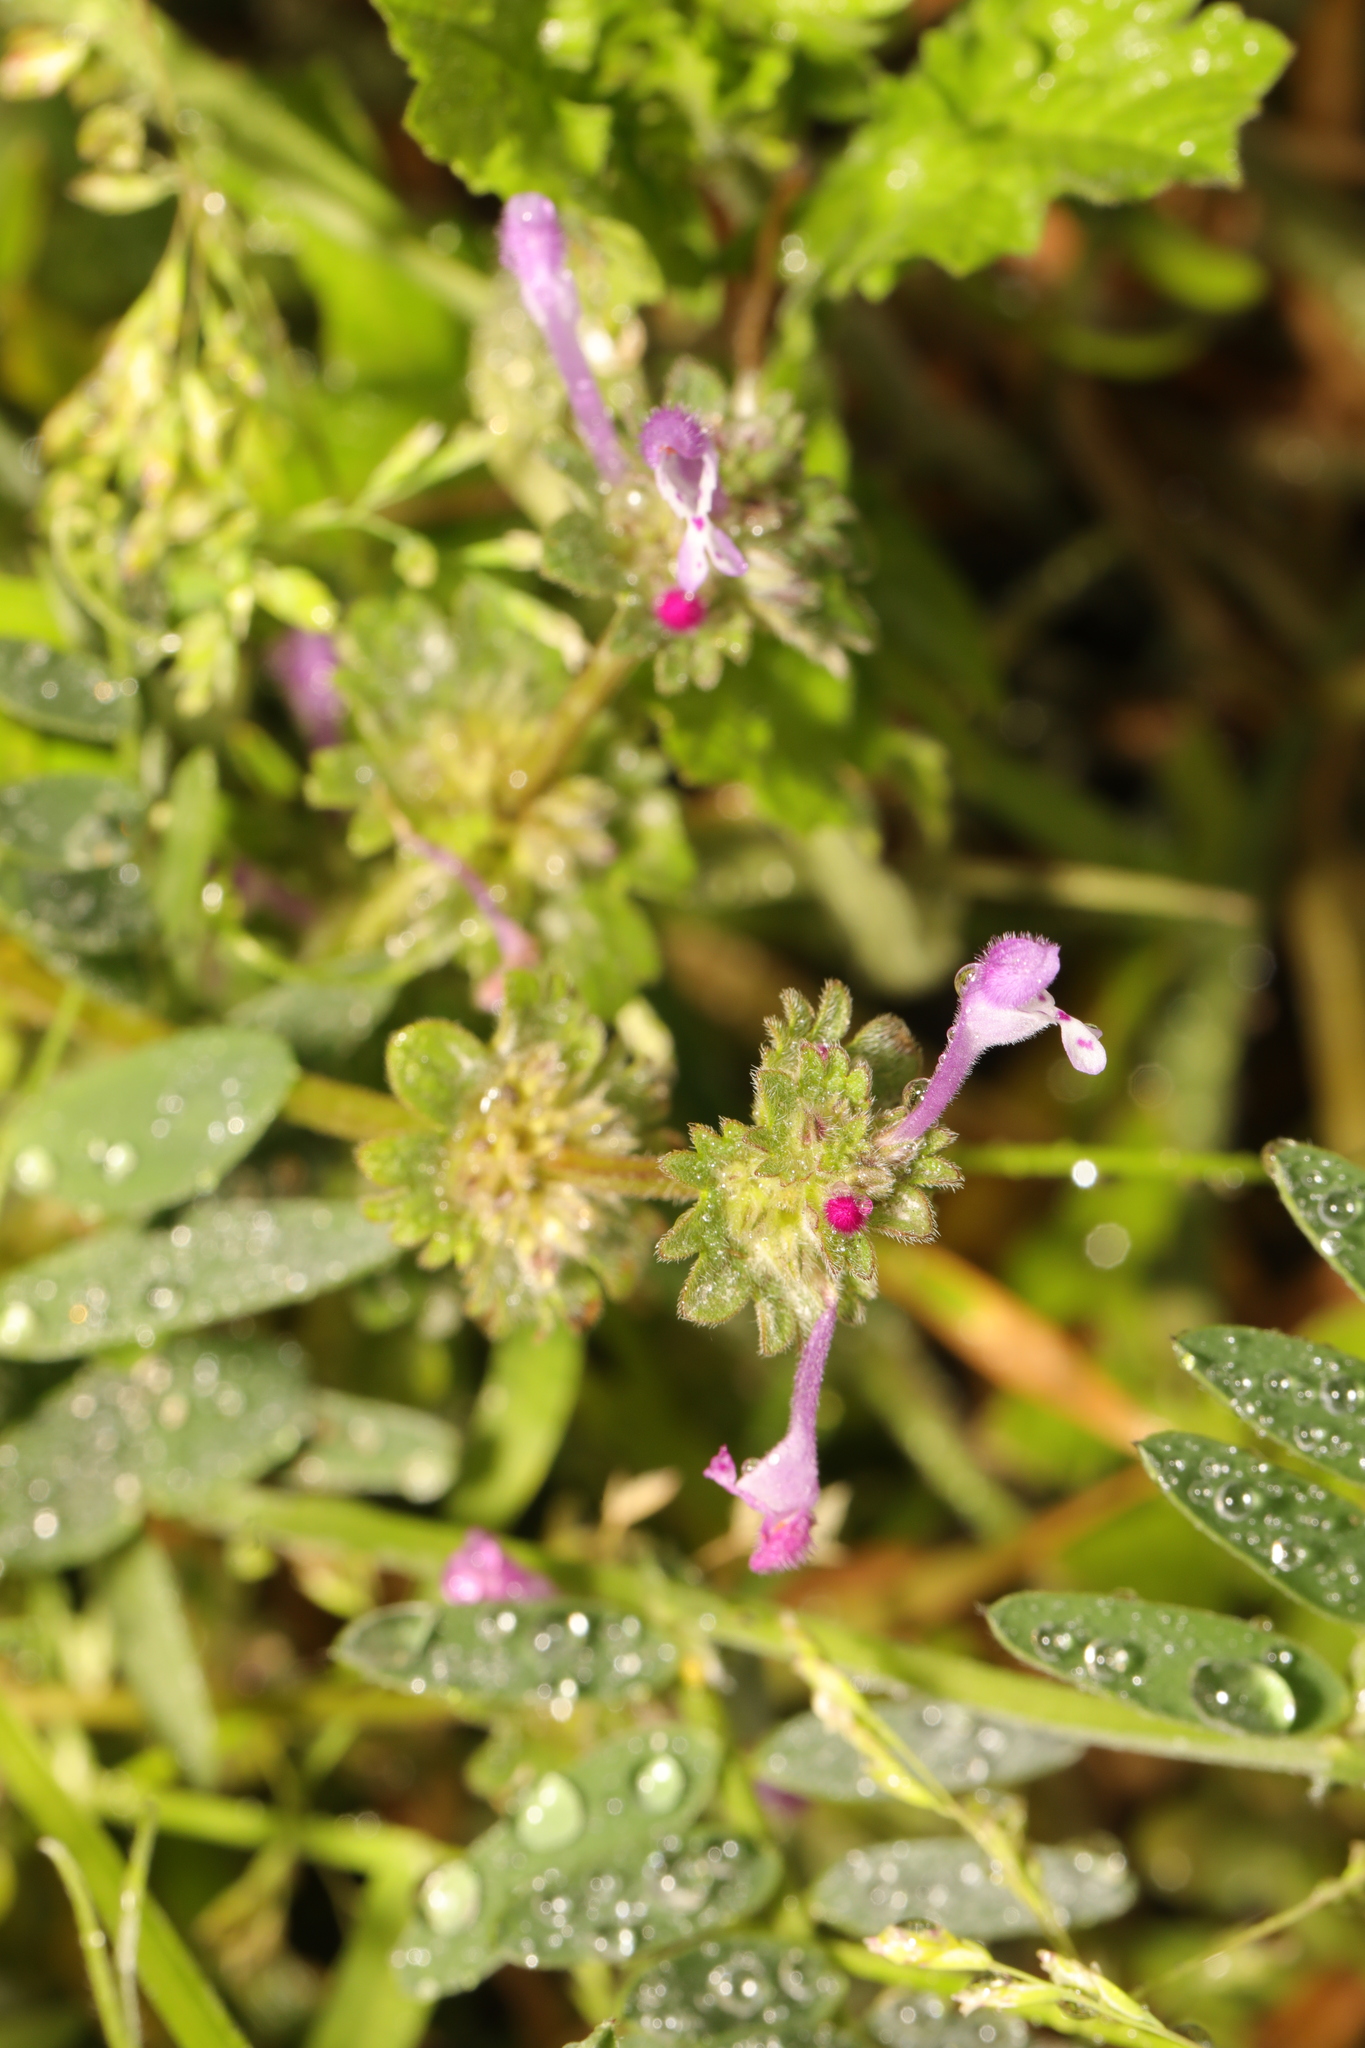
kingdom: Plantae
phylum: Tracheophyta
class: Magnoliopsida
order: Lamiales
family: Lamiaceae
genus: Lamium
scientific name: Lamium amplexicaule
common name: Henbit dead-nettle
